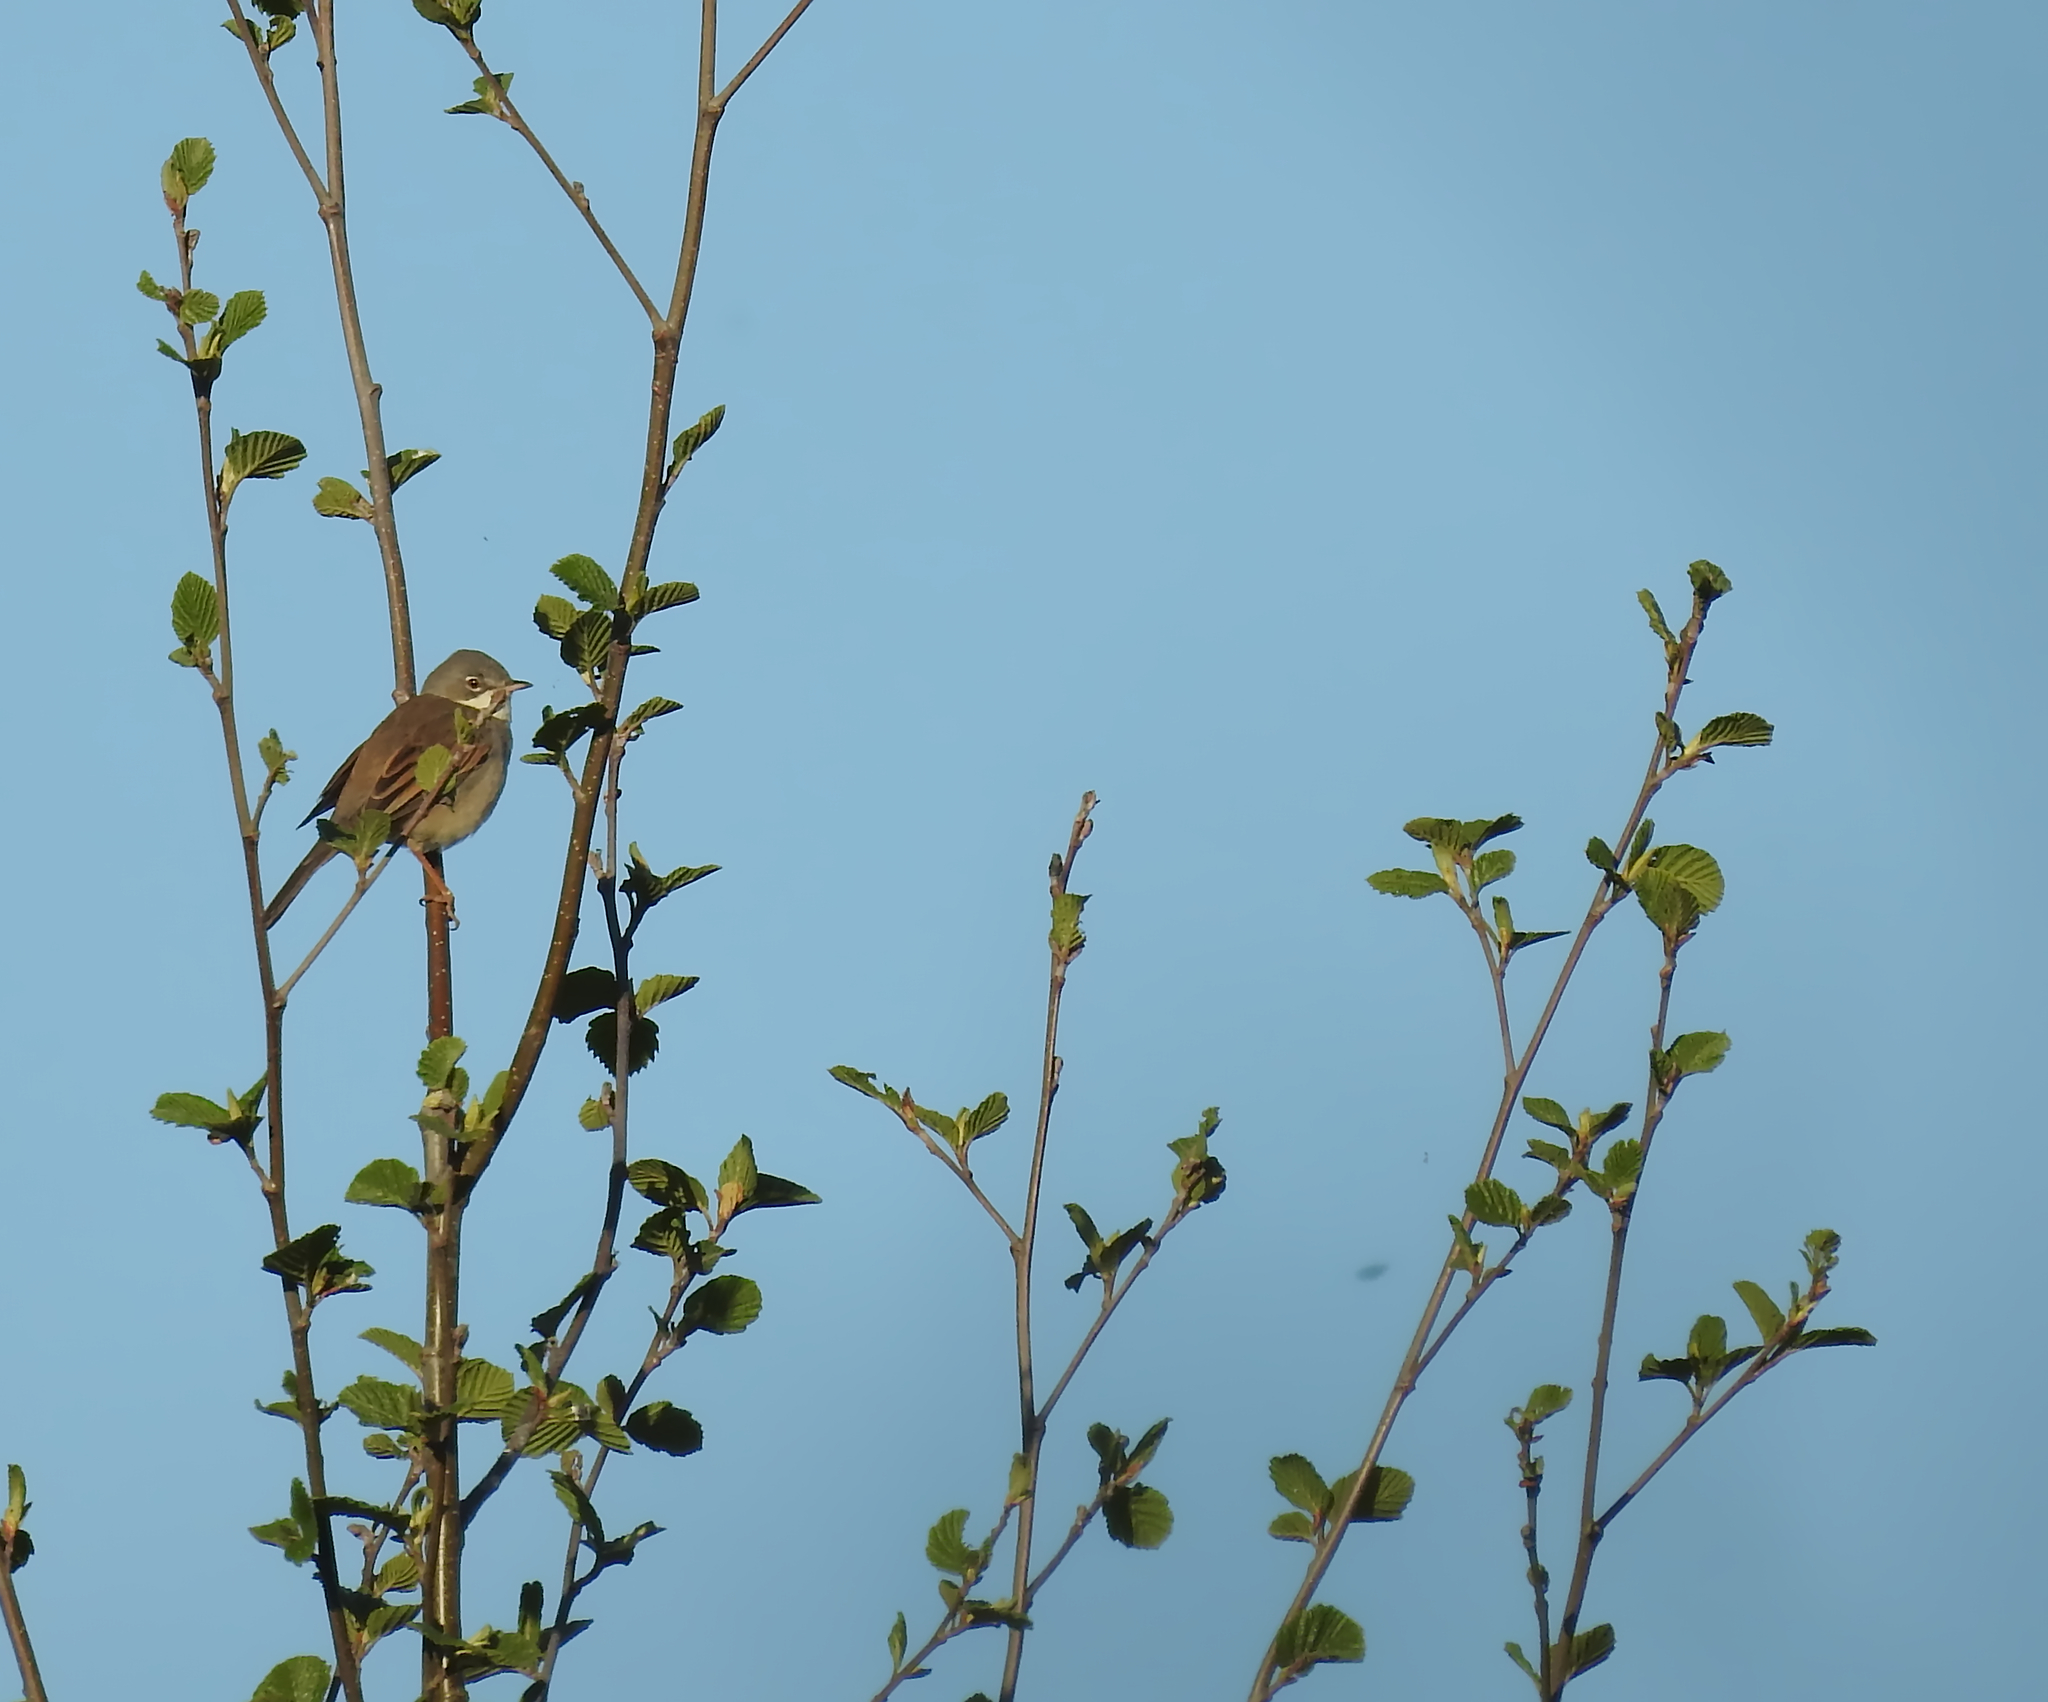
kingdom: Animalia
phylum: Chordata
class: Aves
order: Passeriformes
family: Sylviidae
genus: Sylvia
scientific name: Sylvia communis
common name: Common whitethroat
